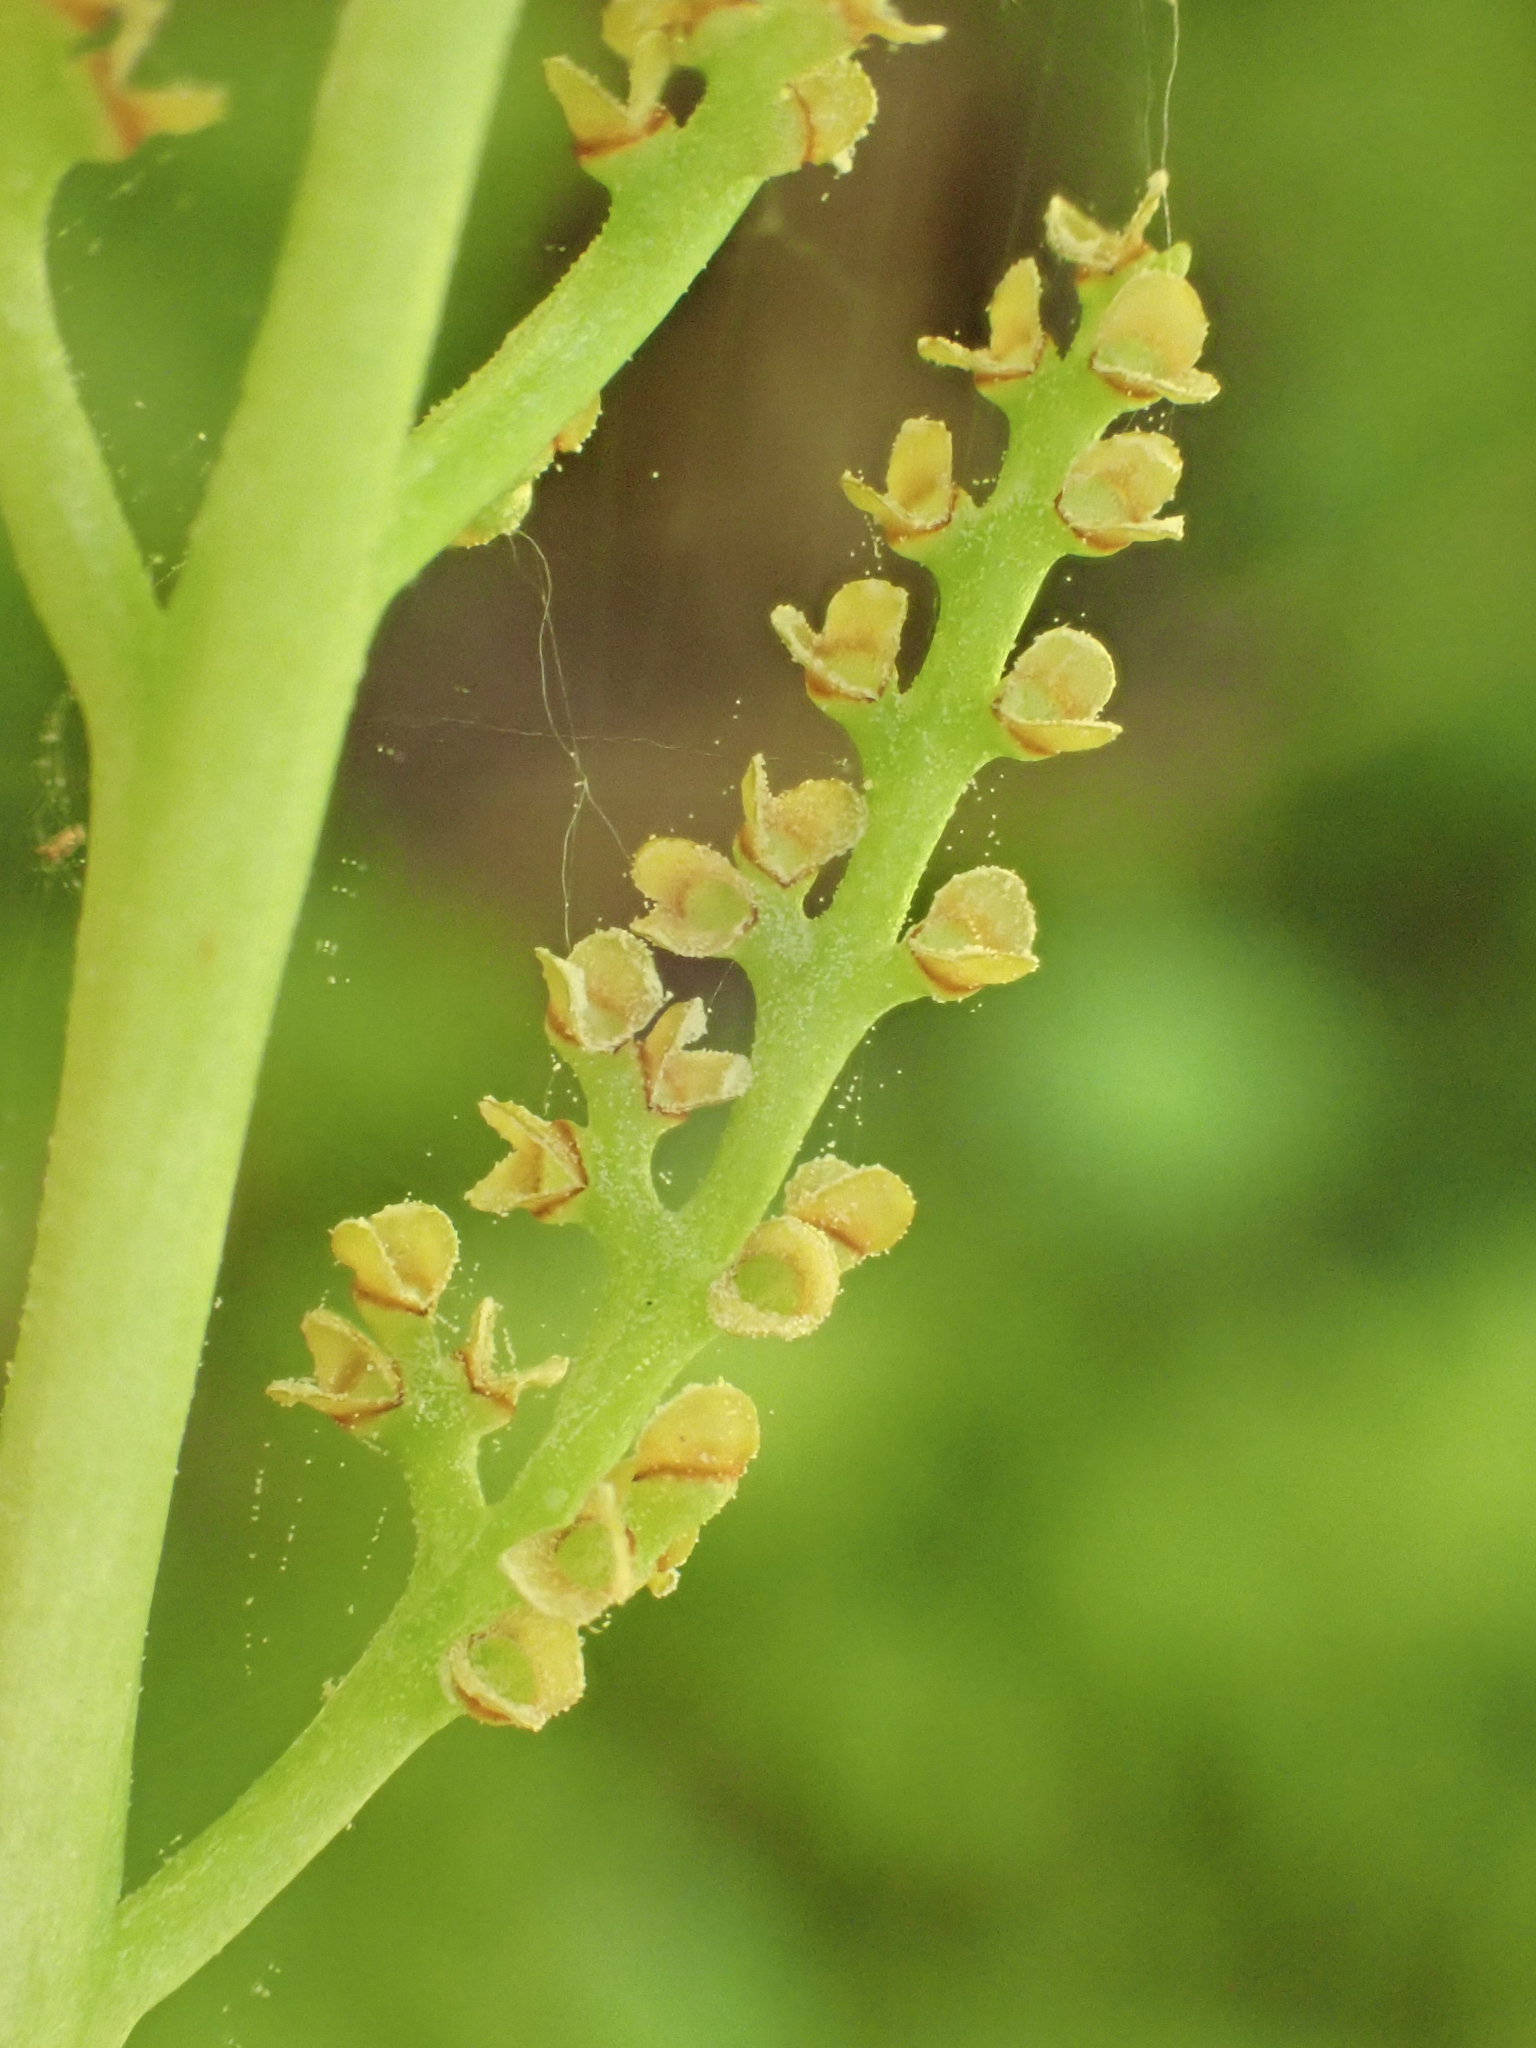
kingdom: Plantae
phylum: Tracheophyta
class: Polypodiopsida
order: Ophioglossales
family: Ophioglossaceae
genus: Botrypus
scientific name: Botrypus virginianus
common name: Common grapefern
